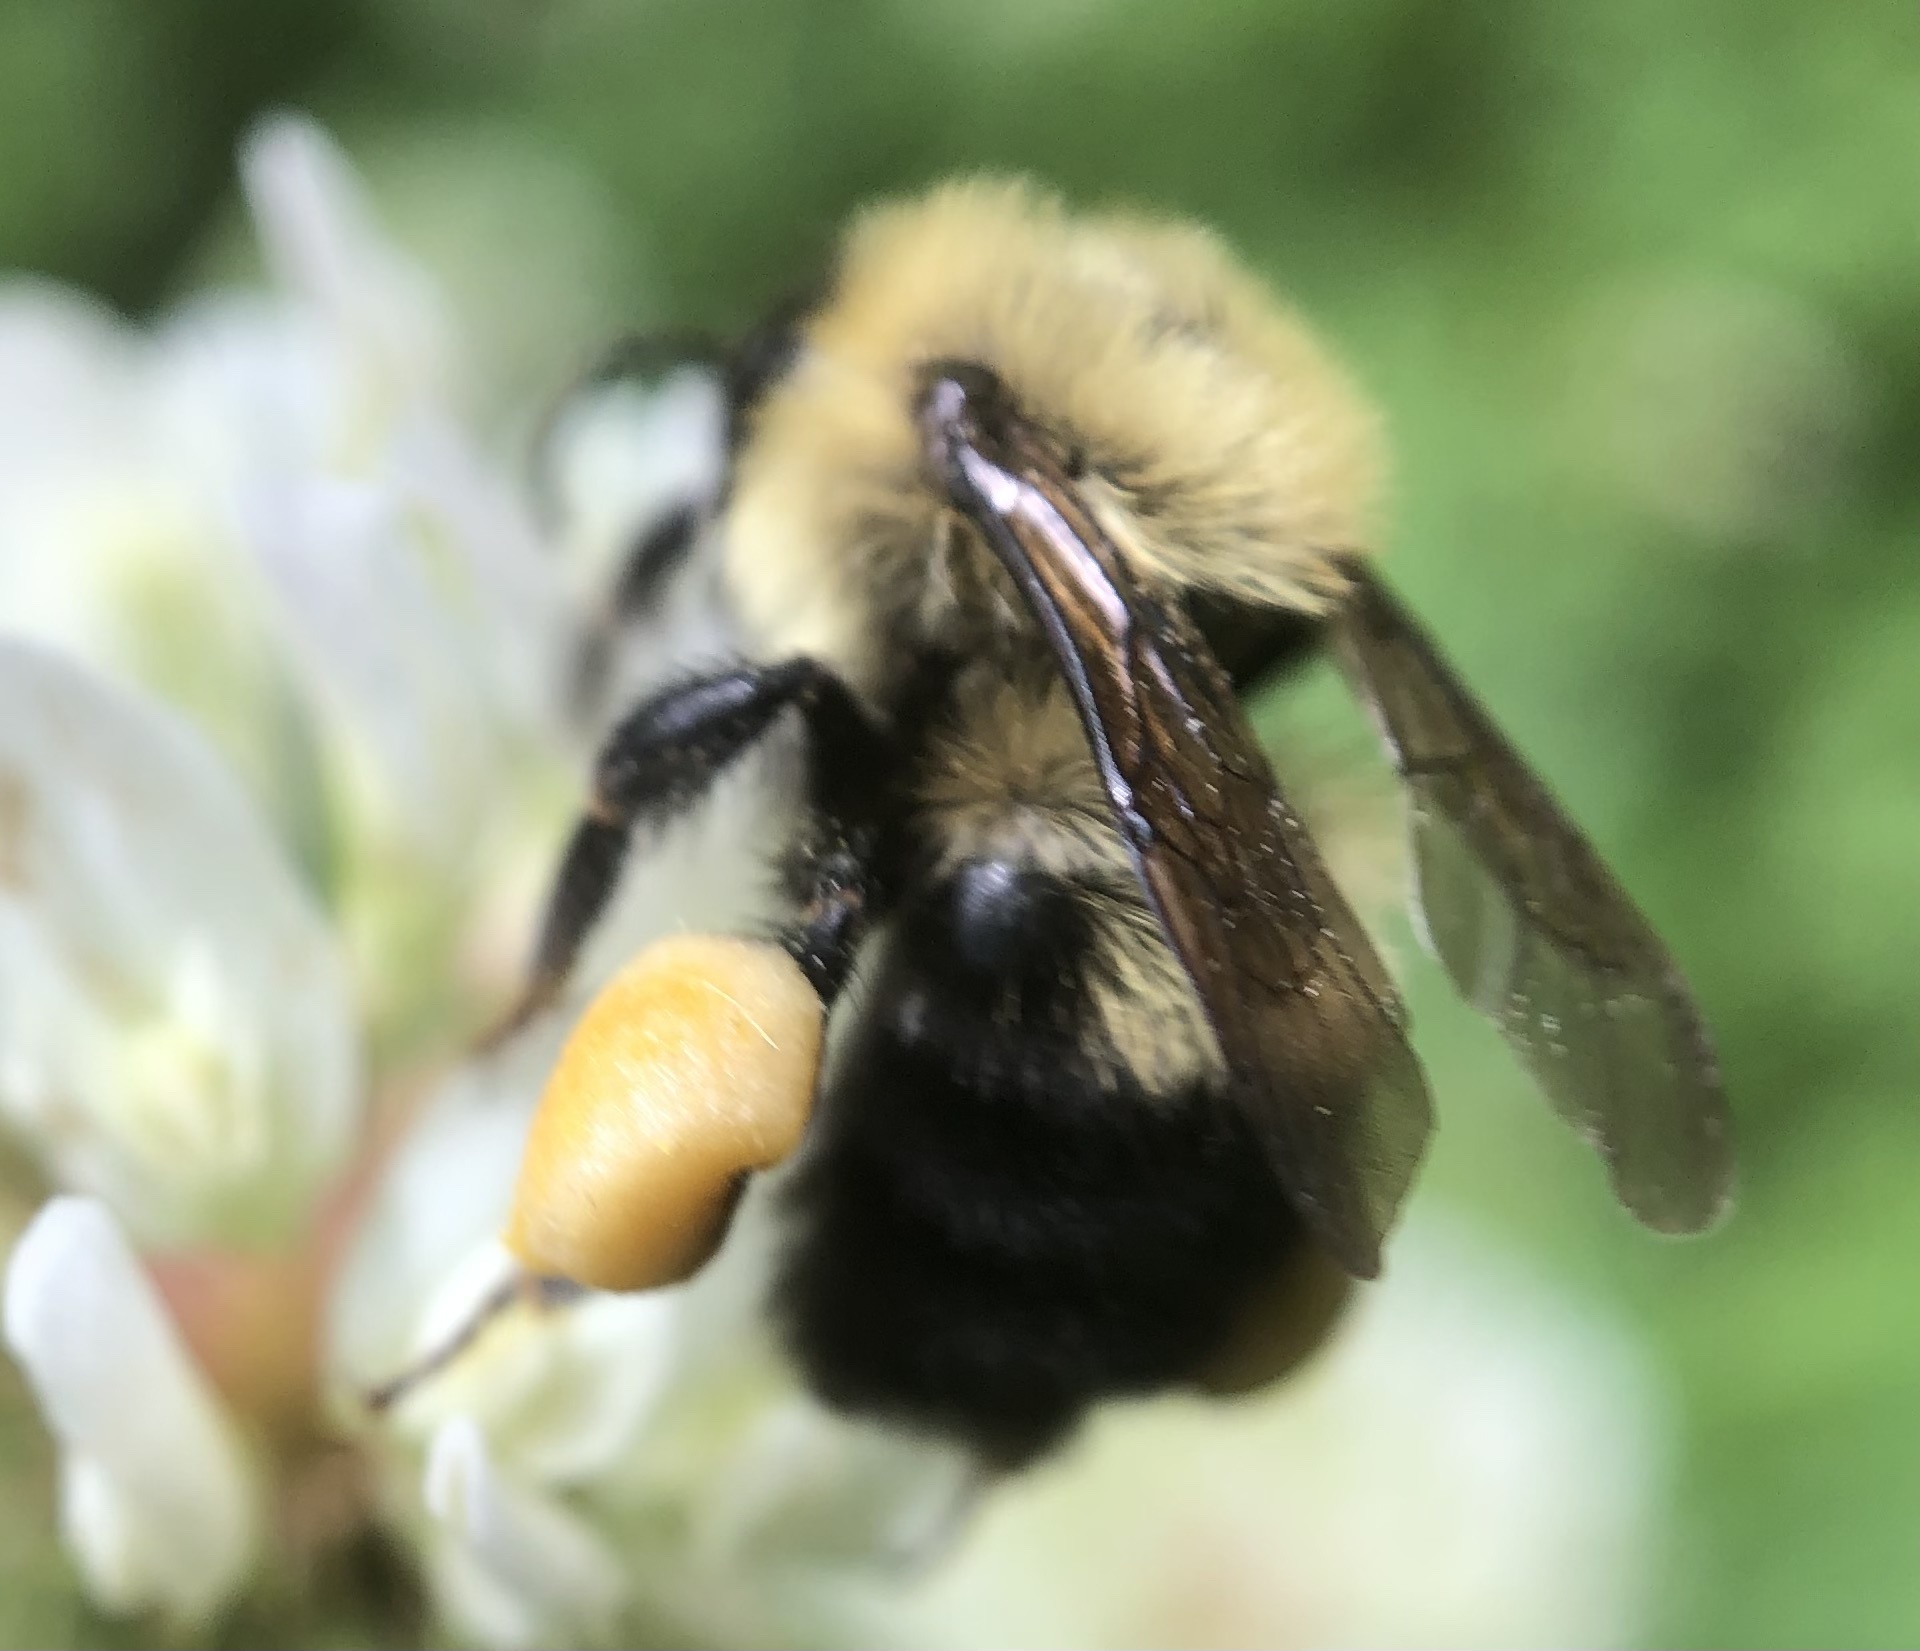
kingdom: Animalia
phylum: Arthropoda
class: Insecta
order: Hymenoptera
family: Apidae
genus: Bombus
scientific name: Bombus bimaculatus
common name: Two-spotted bumble bee
